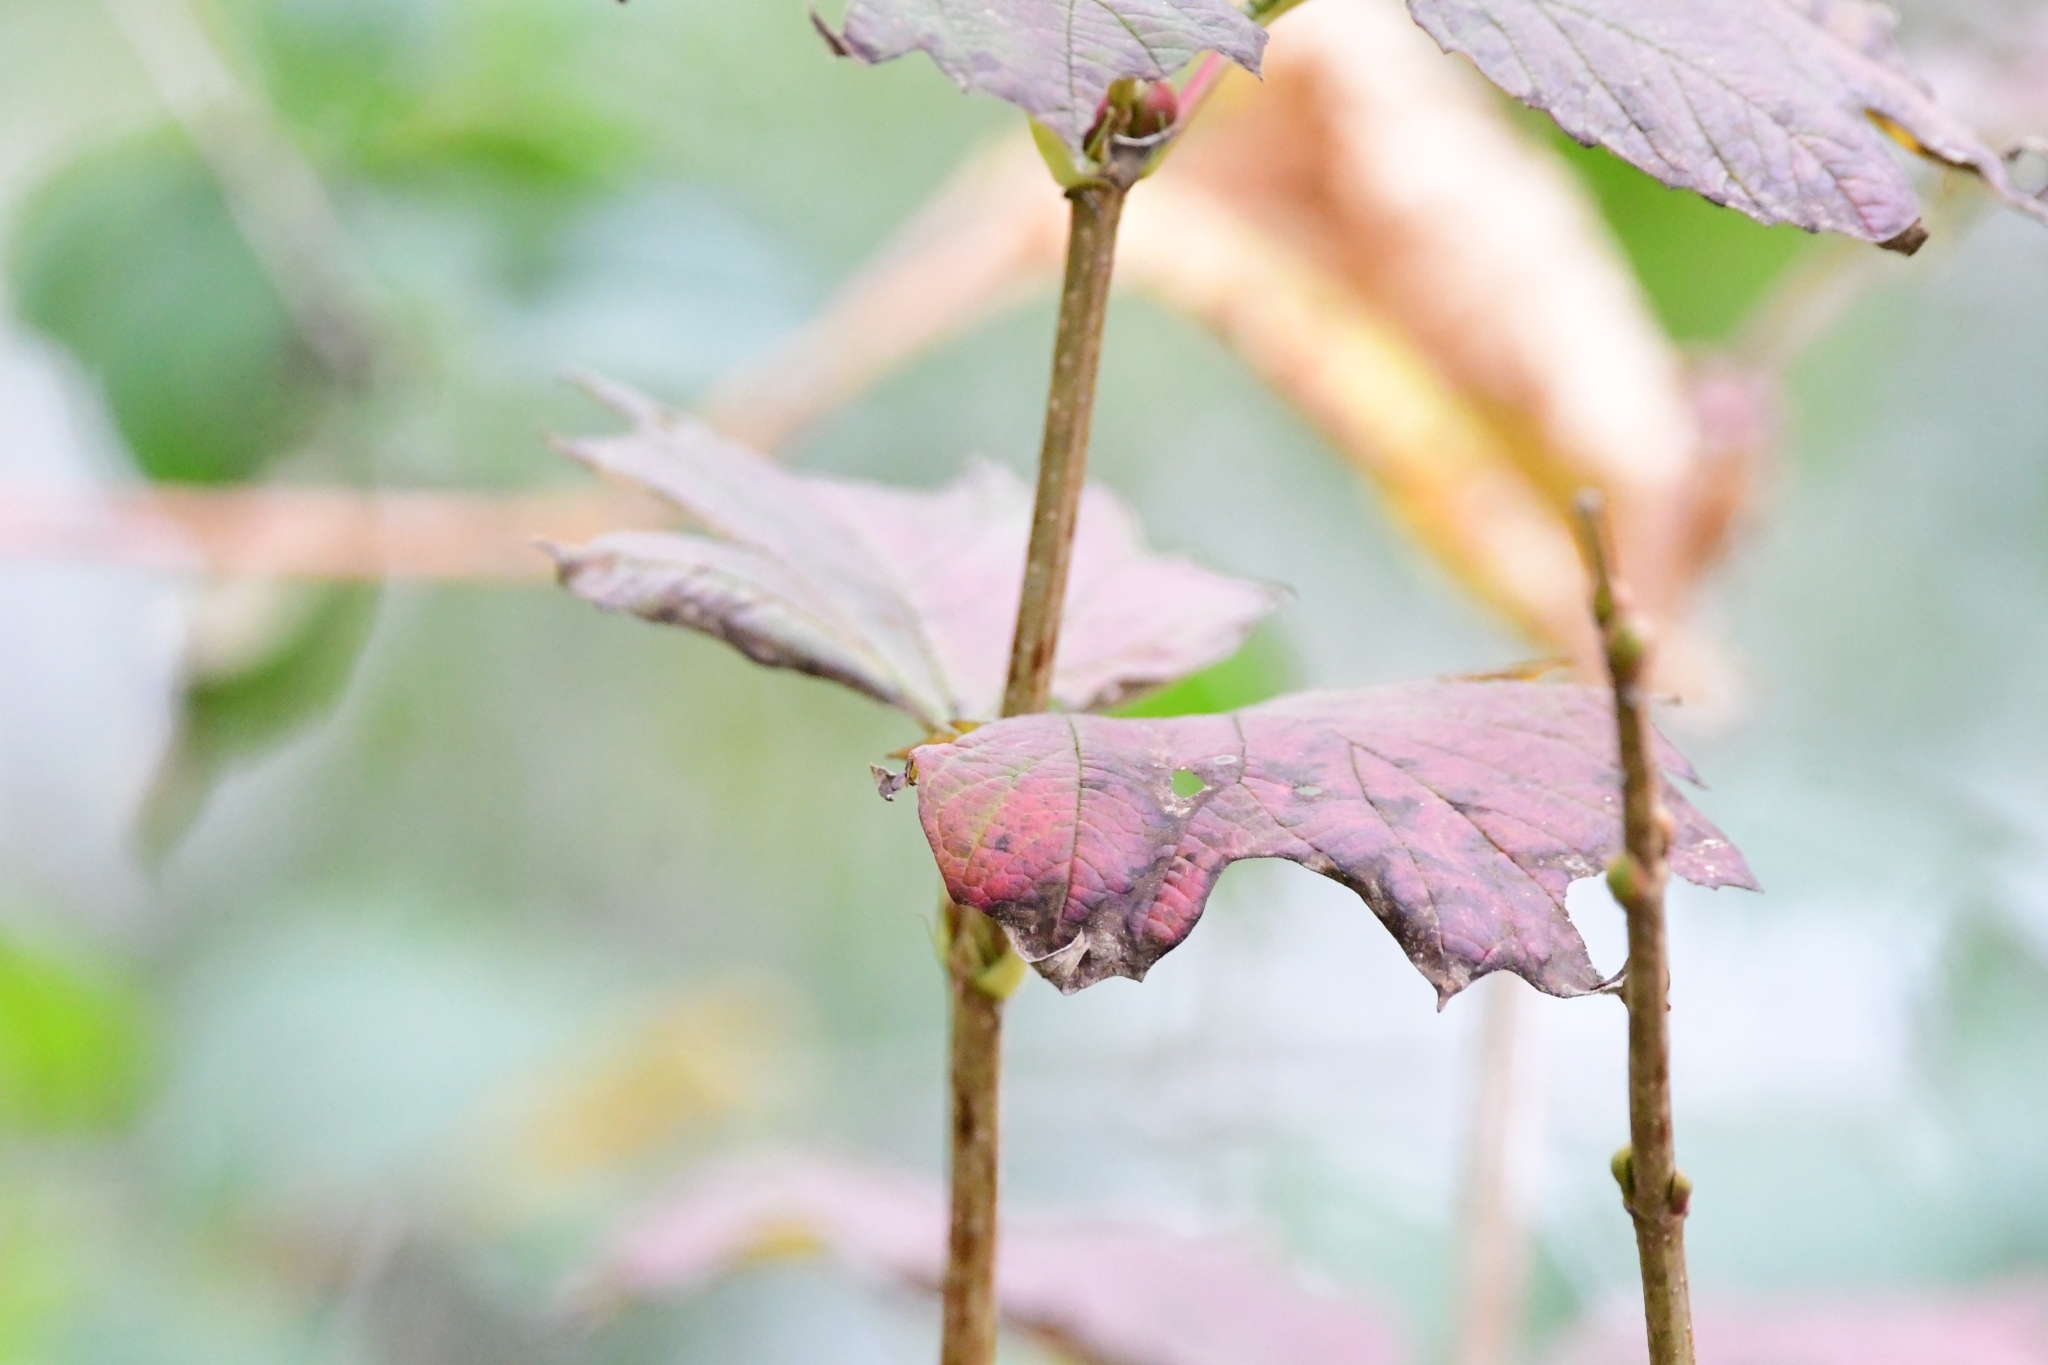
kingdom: Plantae
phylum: Tracheophyta
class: Magnoliopsida
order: Dipsacales
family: Viburnaceae
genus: Viburnum
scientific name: Viburnum opulus
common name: Guelder-rose
